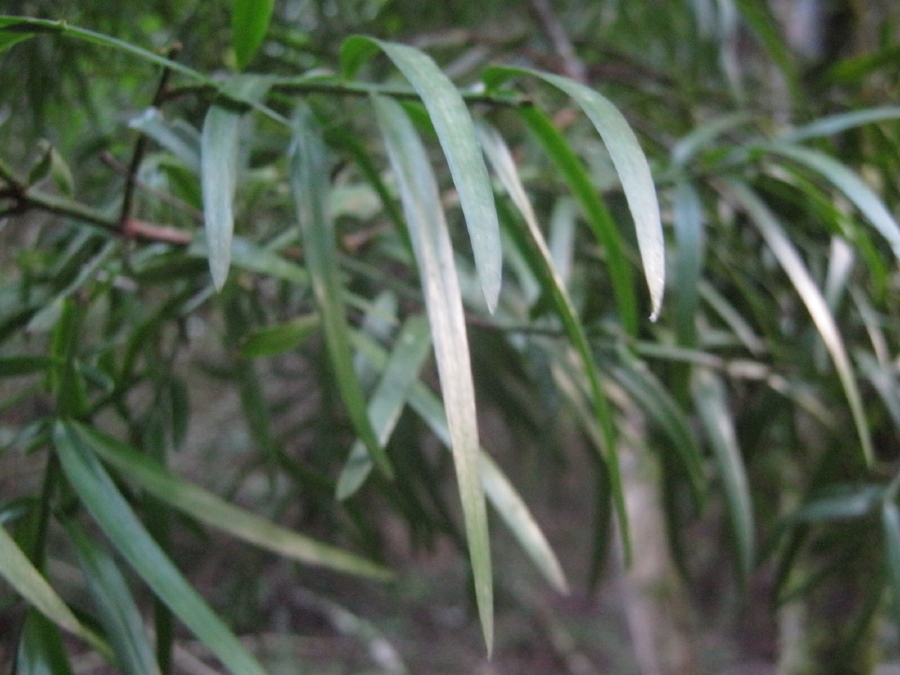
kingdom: Plantae
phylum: Tracheophyta
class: Pinopsida
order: Pinales
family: Podocarpaceae
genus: Afrocarpus
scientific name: Afrocarpus falcatus
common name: Bastard yellowwood
